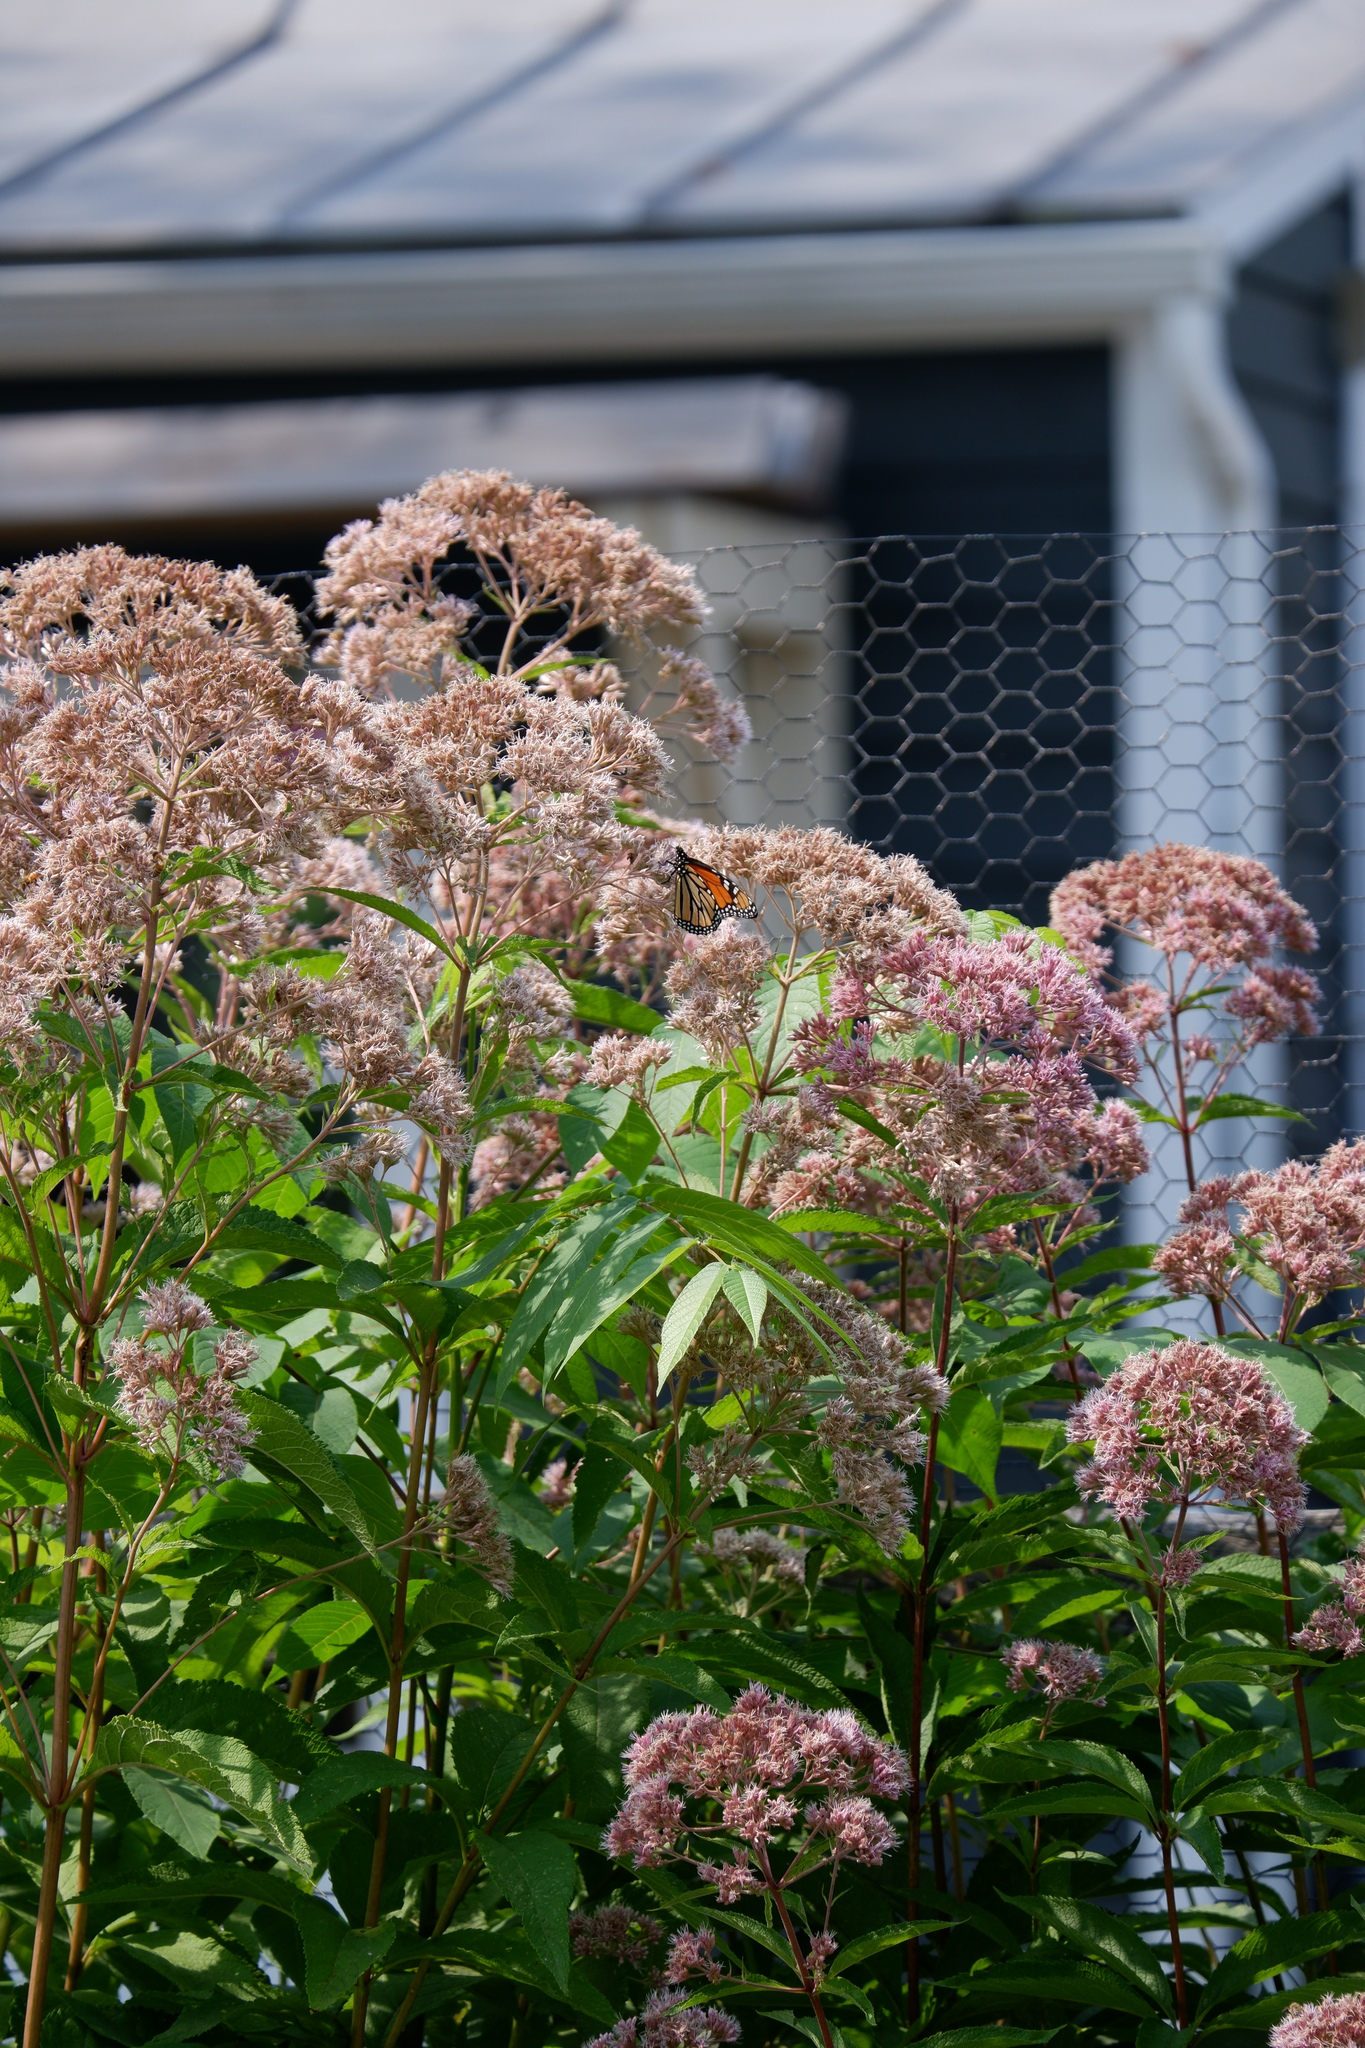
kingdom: Animalia
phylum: Arthropoda
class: Insecta
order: Lepidoptera
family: Nymphalidae
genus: Danaus
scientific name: Danaus plexippus
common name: Monarch
